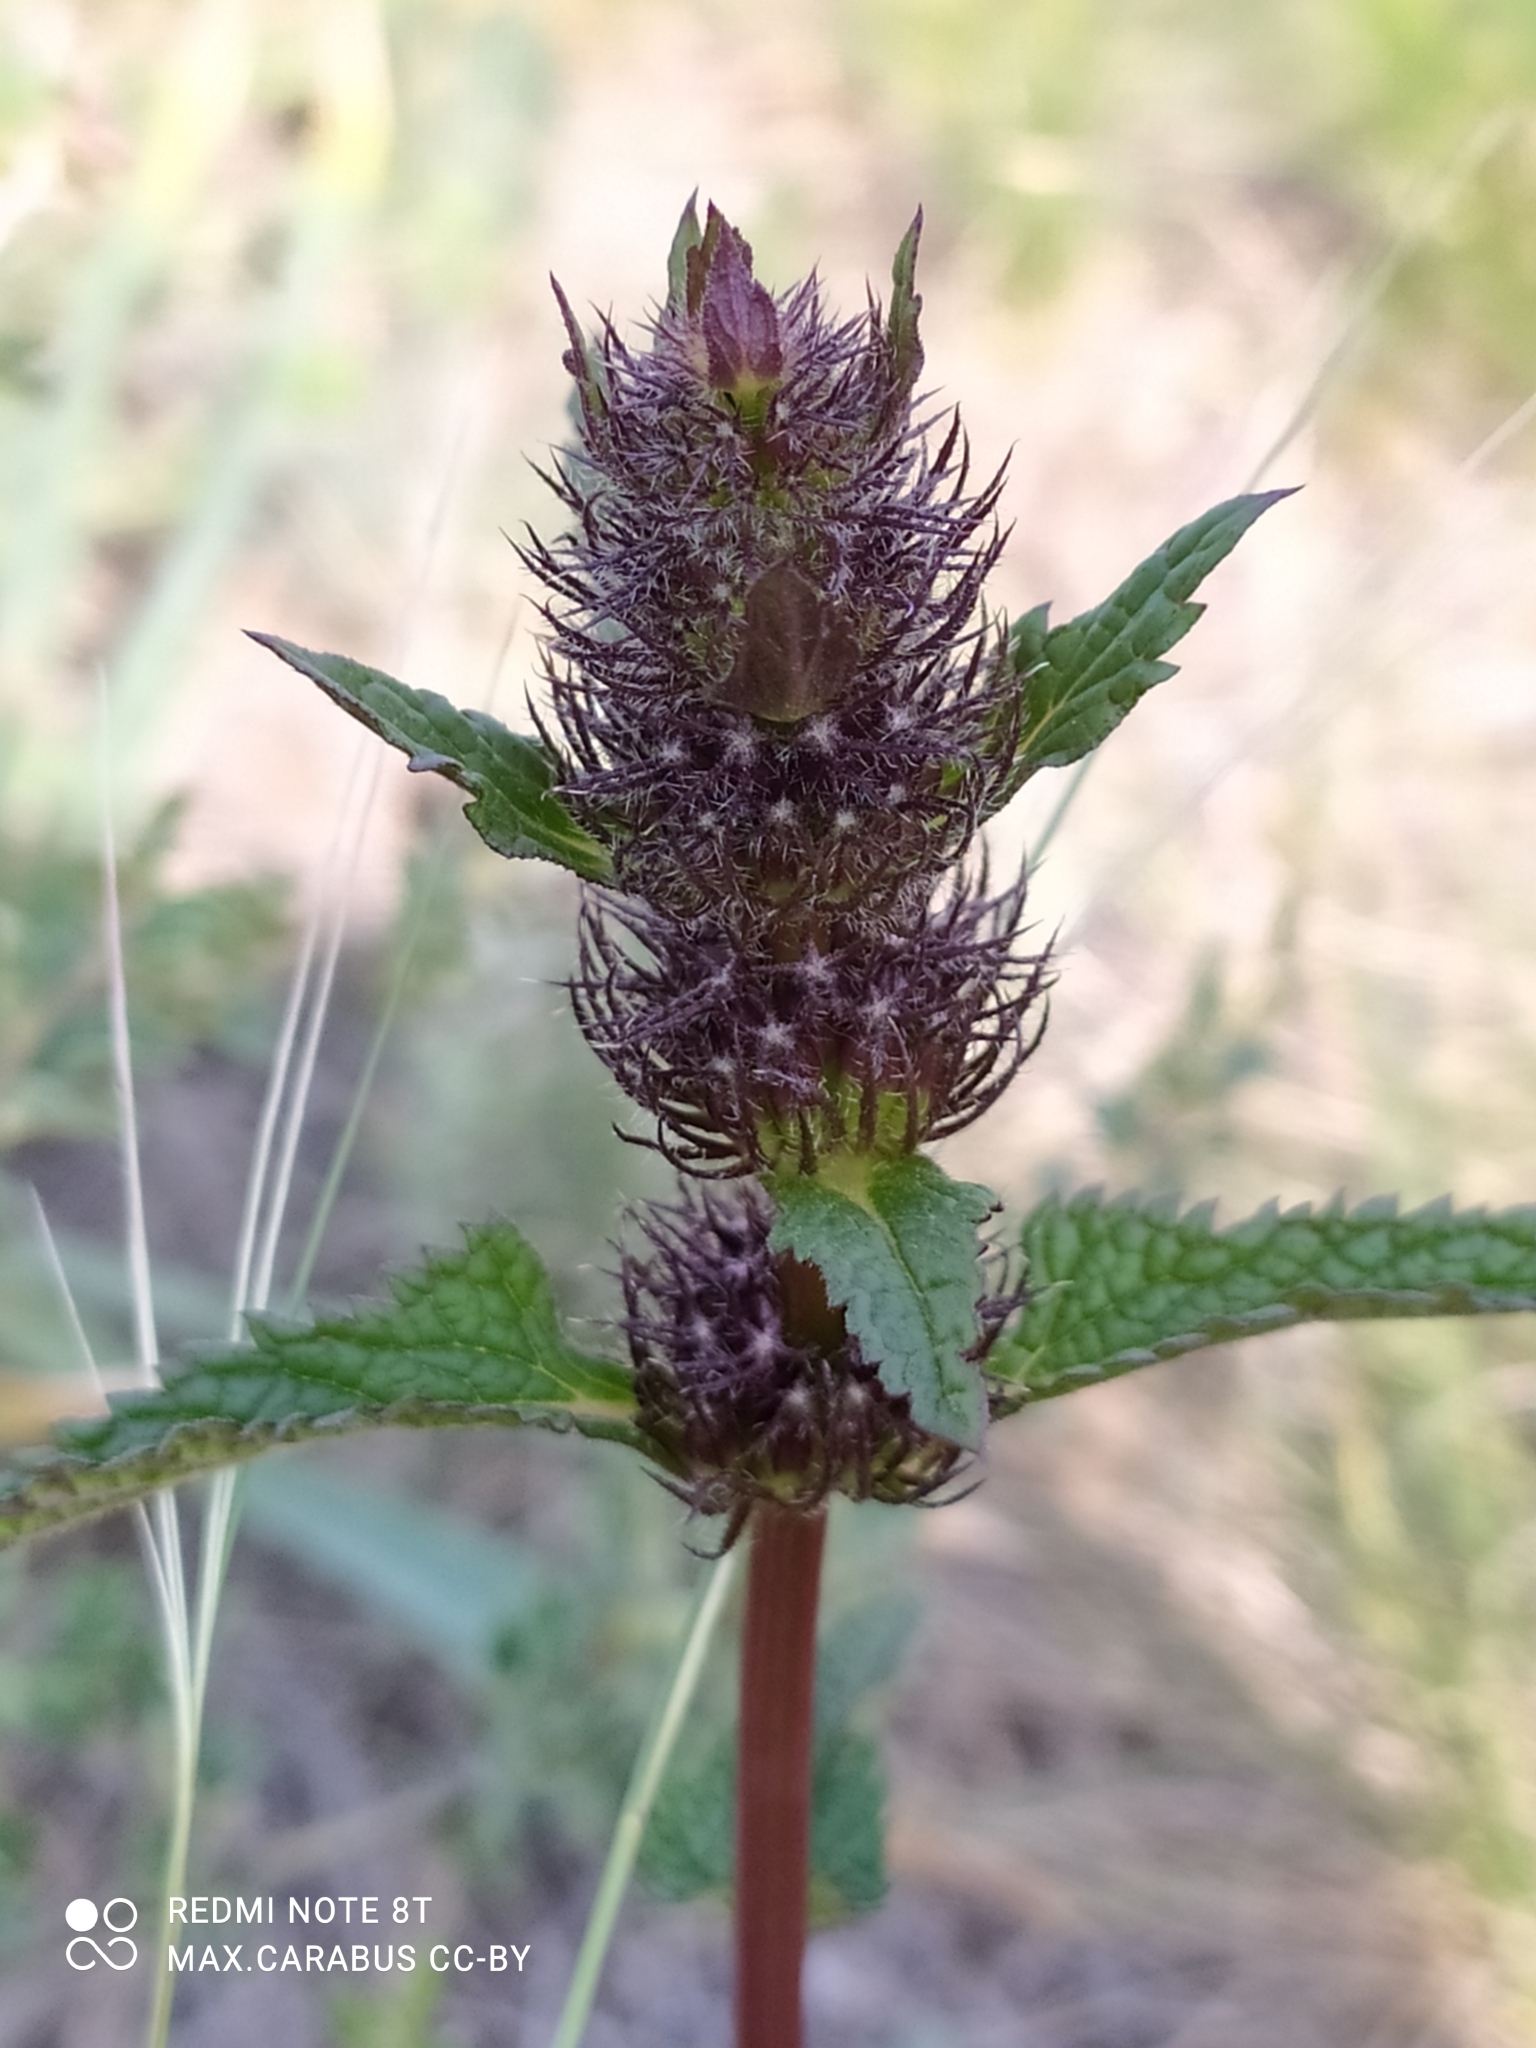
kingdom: Plantae
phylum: Tracheophyta
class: Magnoliopsida
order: Lamiales
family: Lamiaceae
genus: Phlomoides
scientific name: Phlomoides tuberosa
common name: Tuberous jerusalem sage
